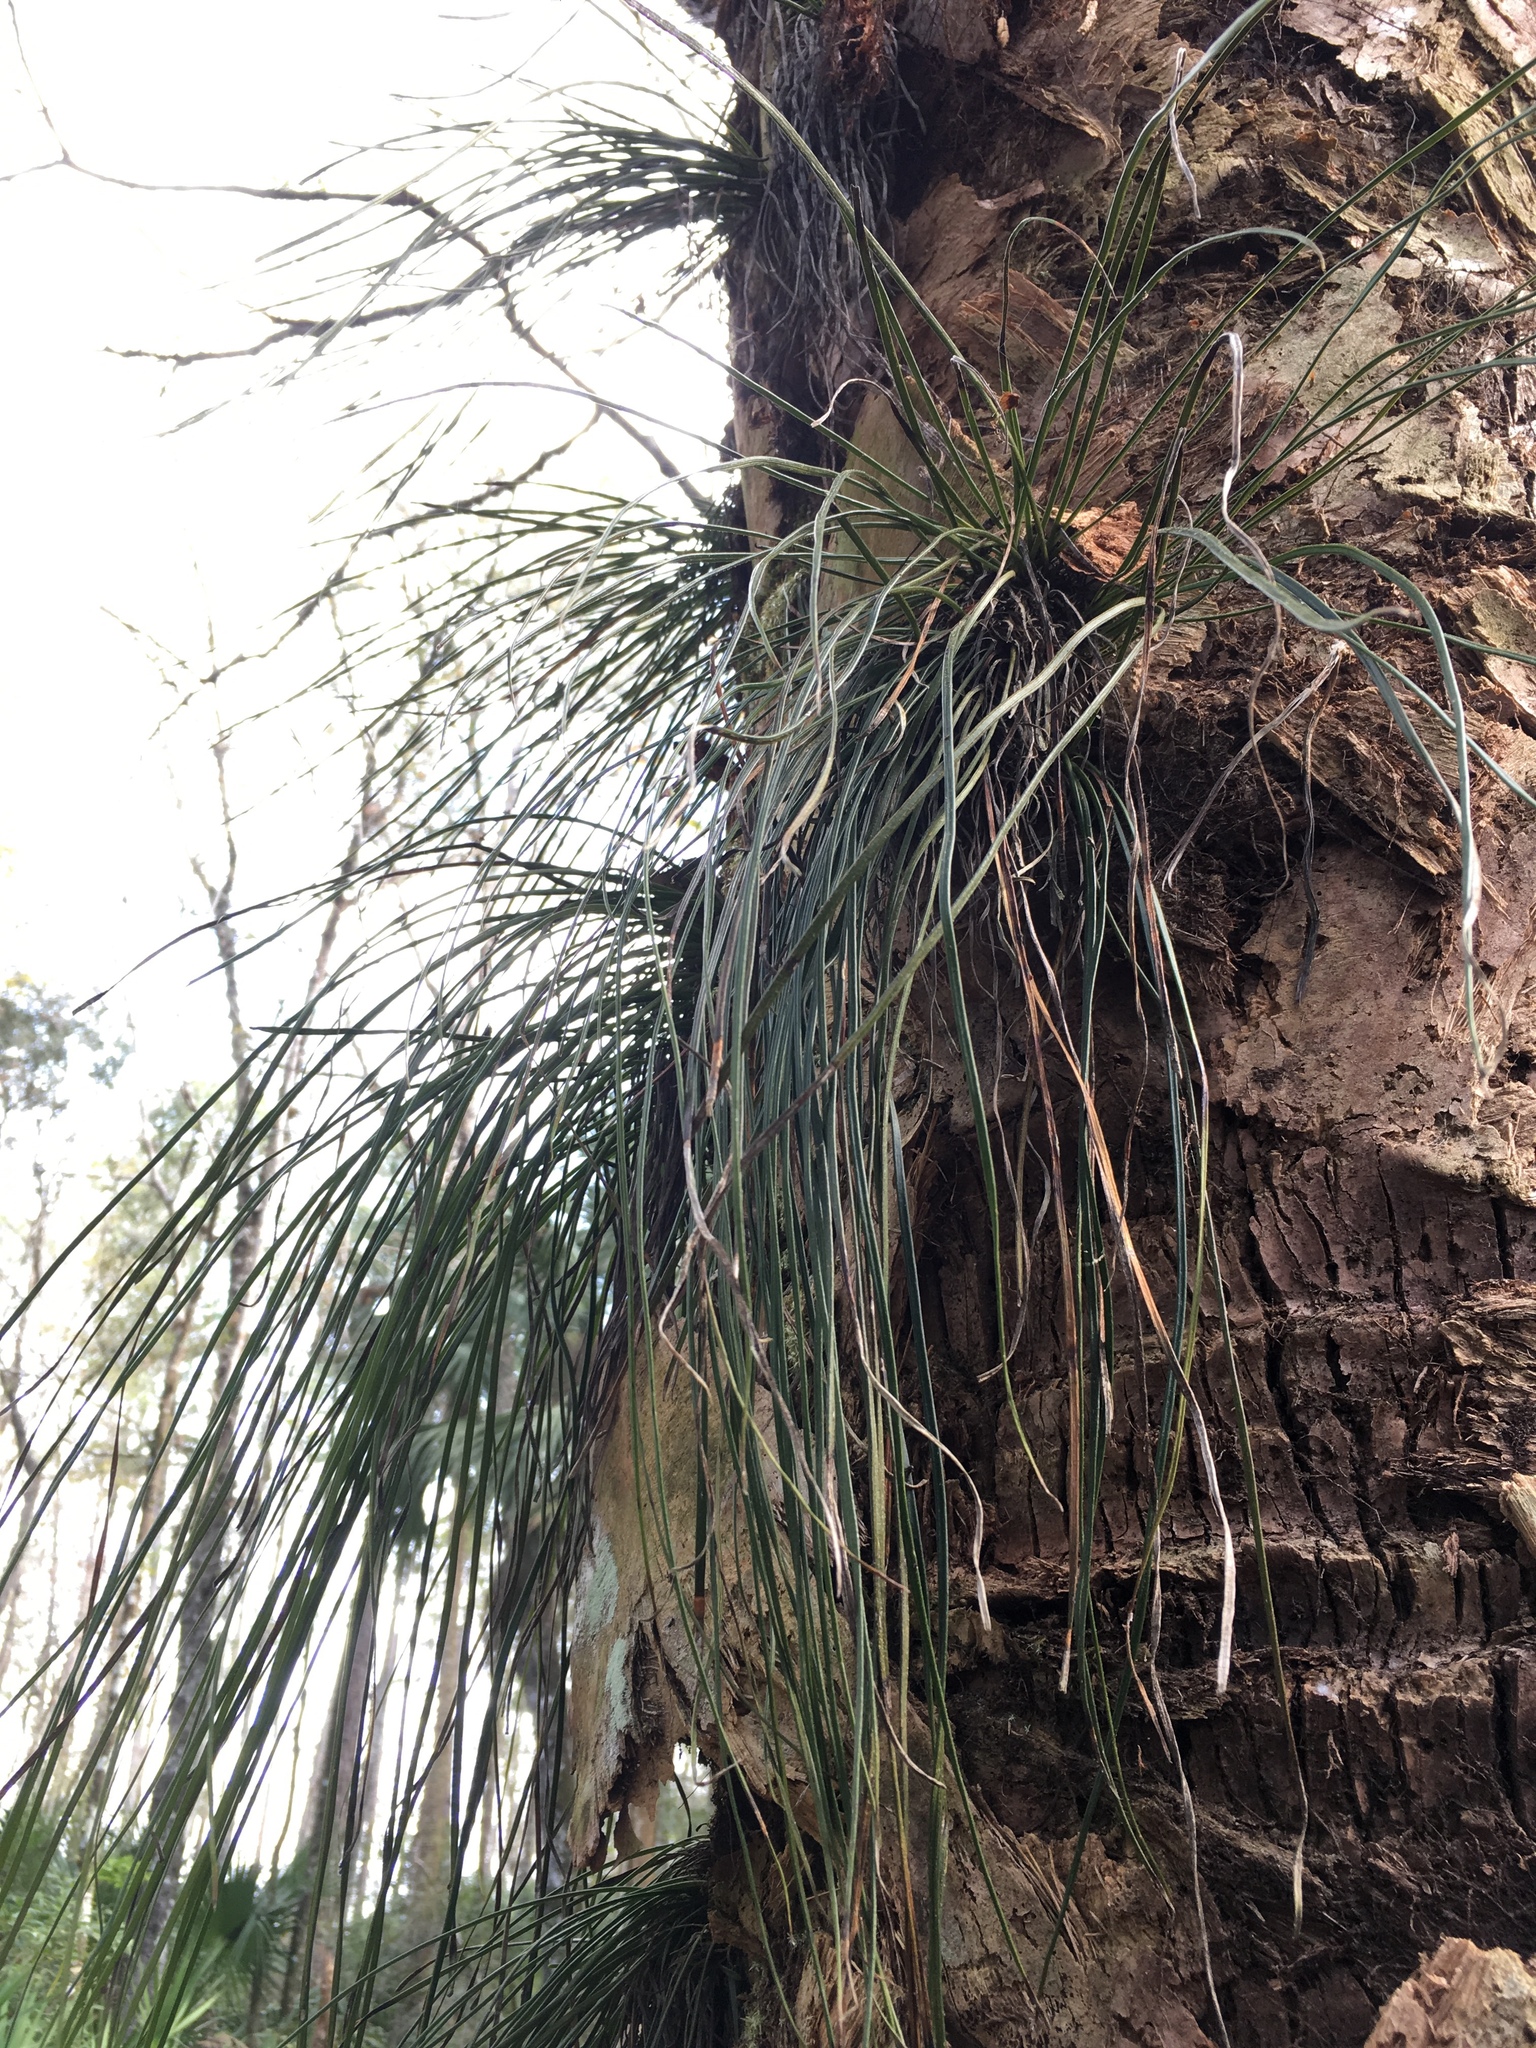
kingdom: Plantae
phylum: Tracheophyta
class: Polypodiopsida
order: Polypodiales
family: Pteridaceae
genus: Vittaria
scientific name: Vittaria lineata
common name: Shoestring fern
